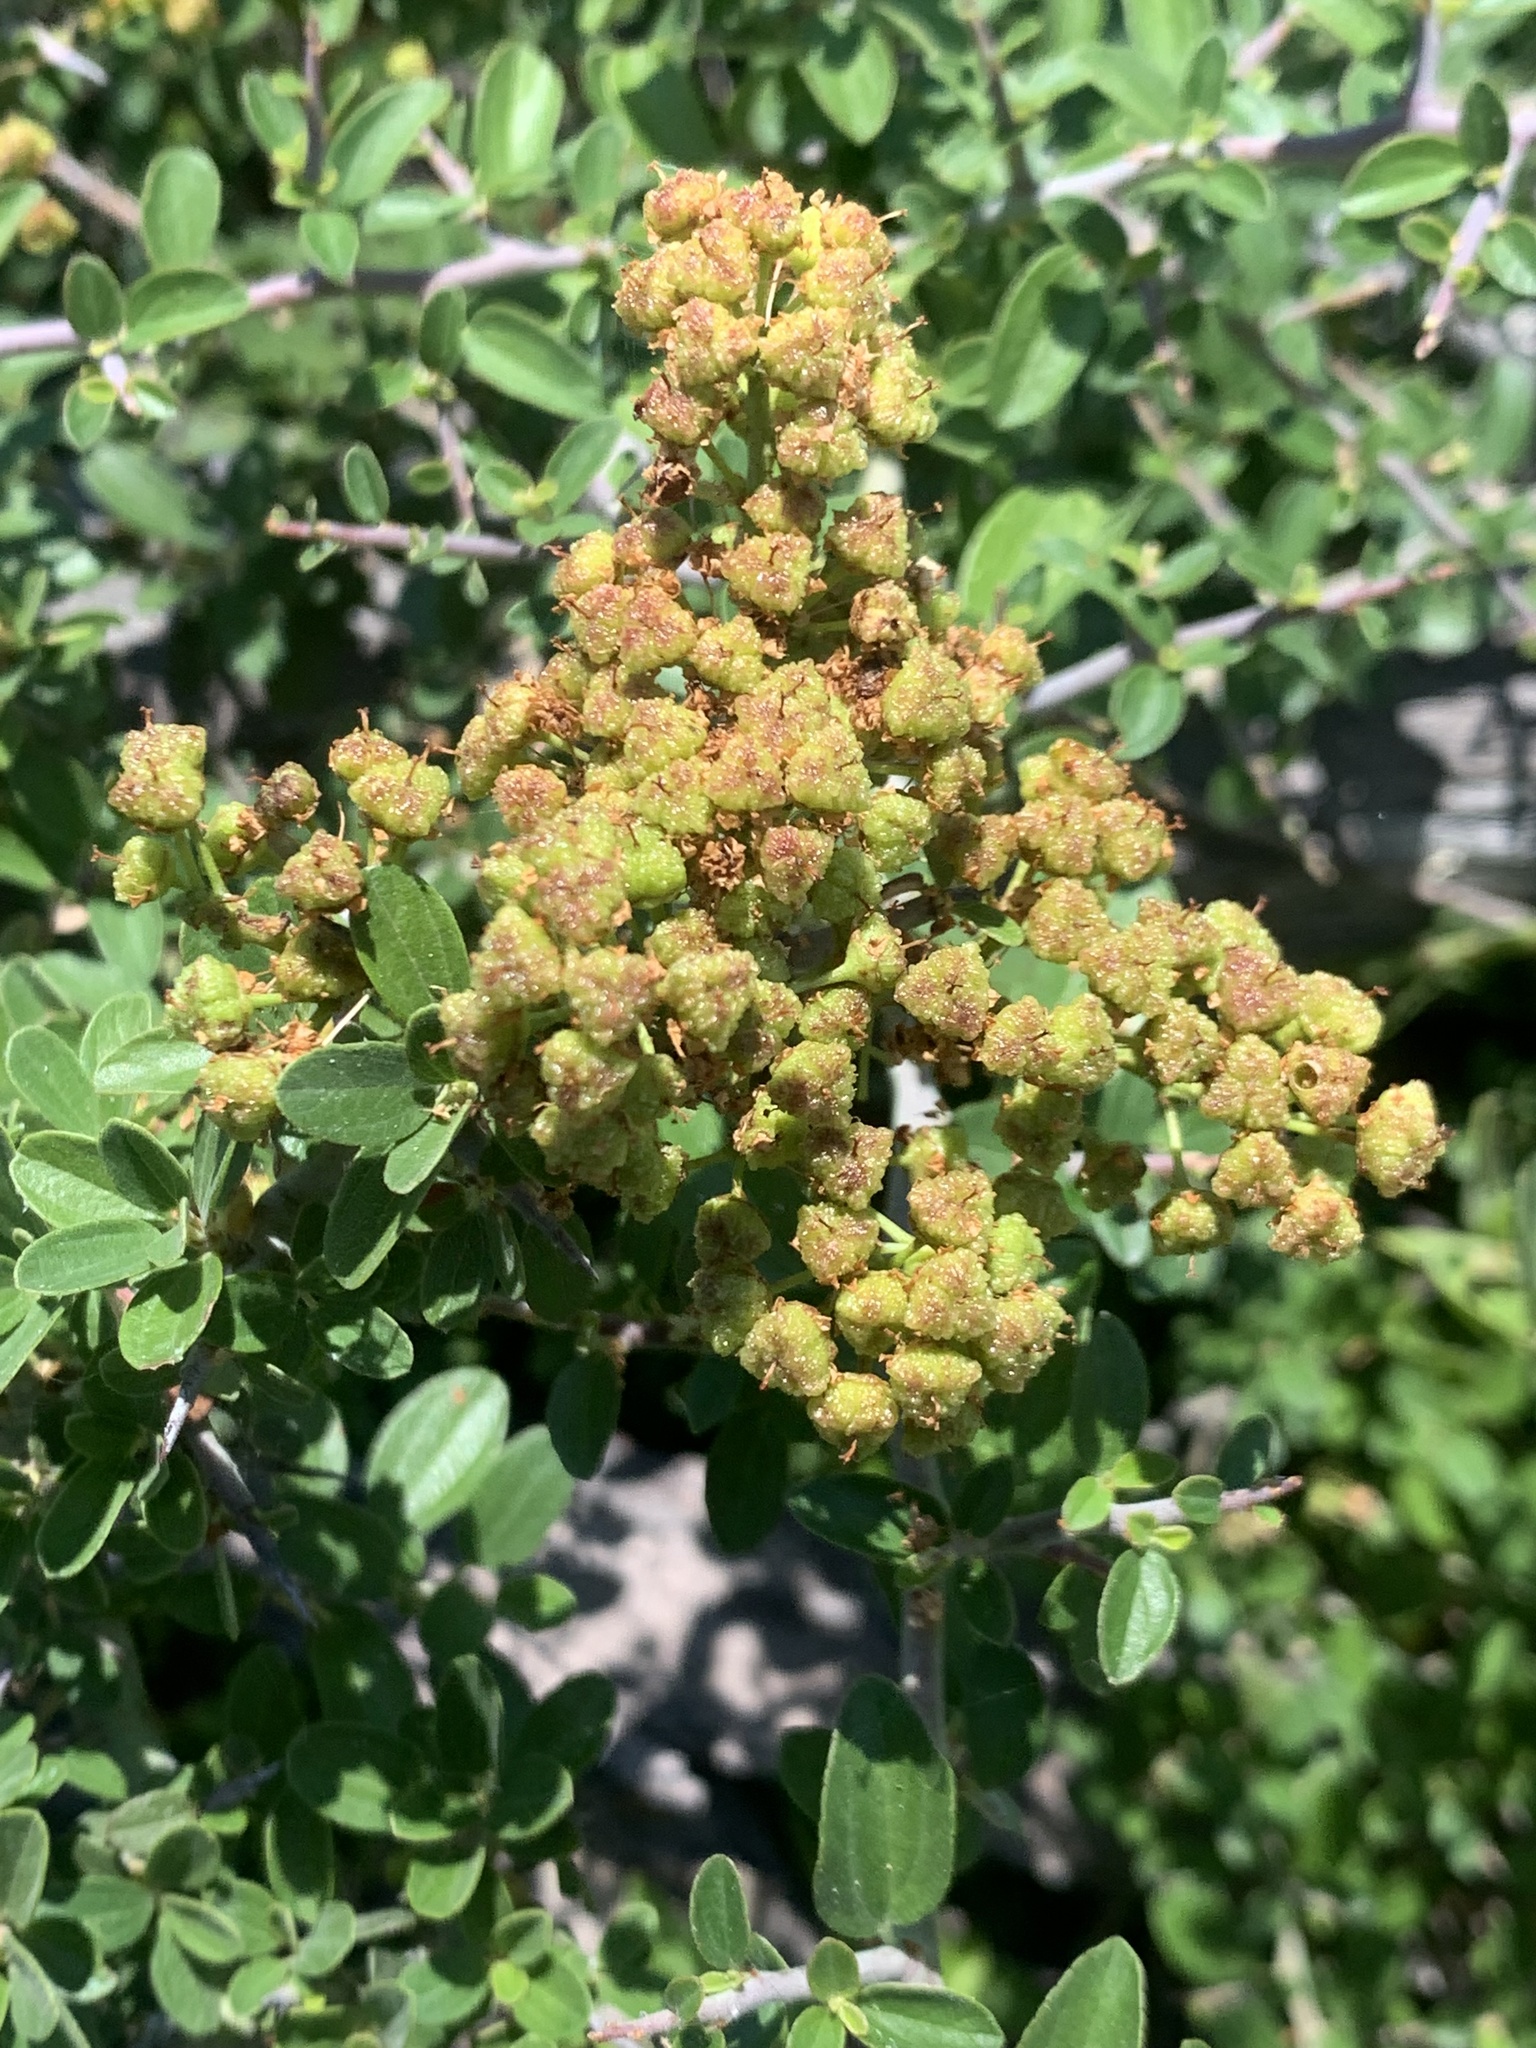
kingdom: Plantae
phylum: Tracheophyta
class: Magnoliopsida
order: Rosales
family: Rhamnaceae
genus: Ceanothus
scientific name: Ceanothus cordulatus
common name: Mountain whitethorn
